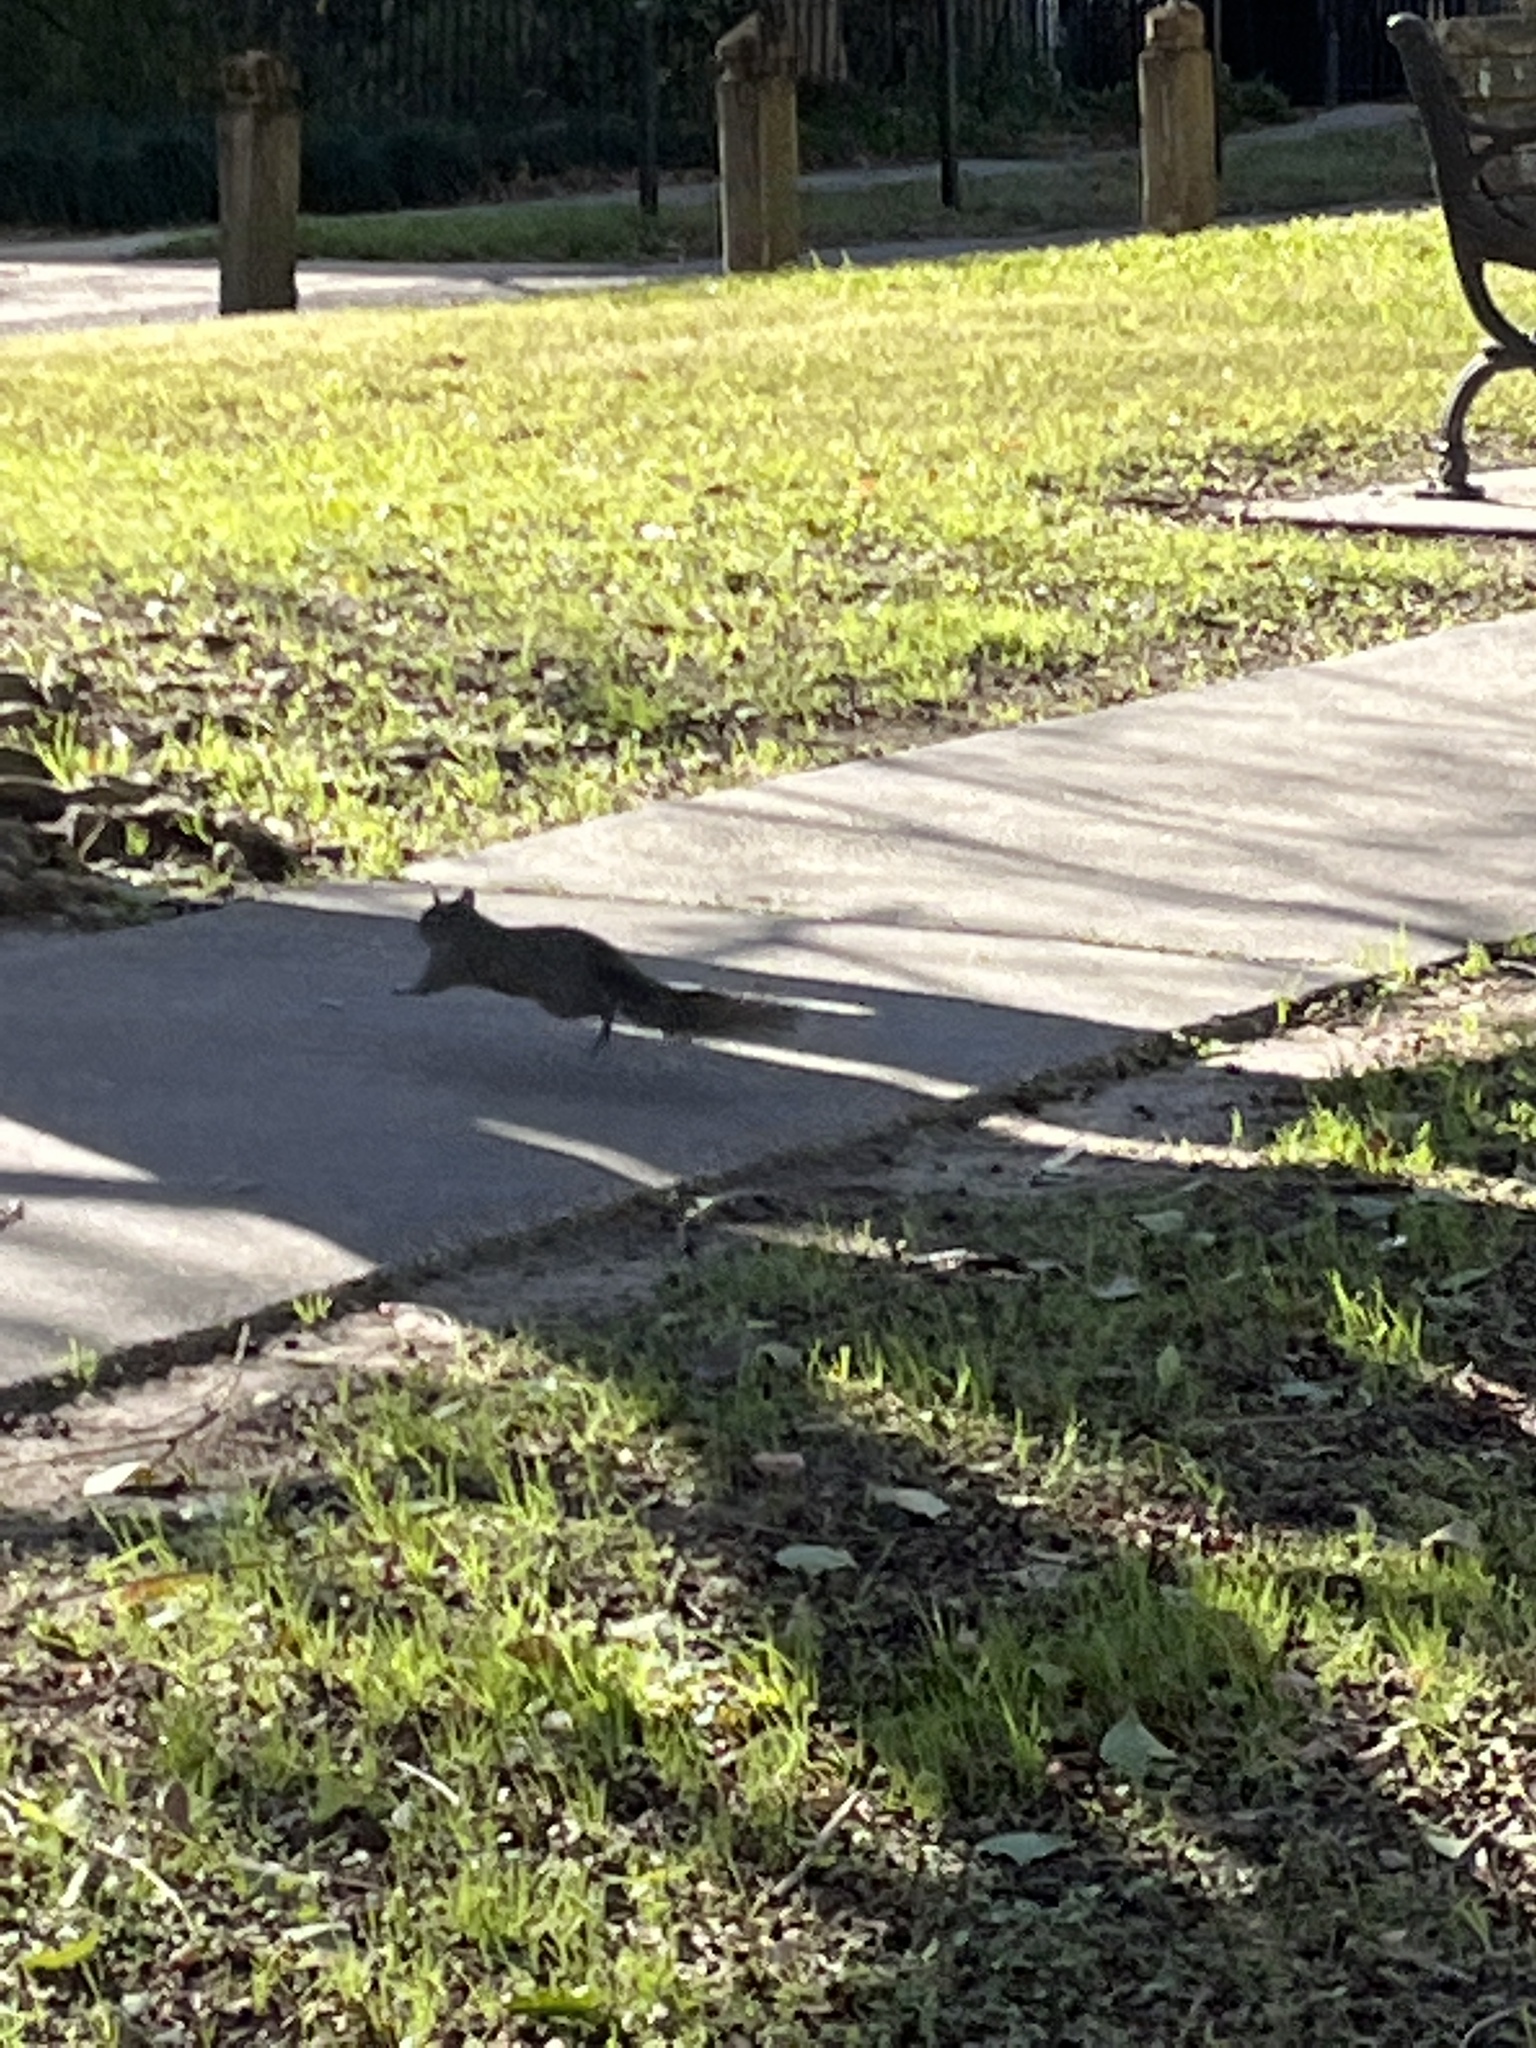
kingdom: Animalia
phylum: Chordata
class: Mammalia
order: Rodentia
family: Sciuridae
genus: Sciurus
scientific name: Sciurus carolinensis
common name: Eastern gray squirrel
